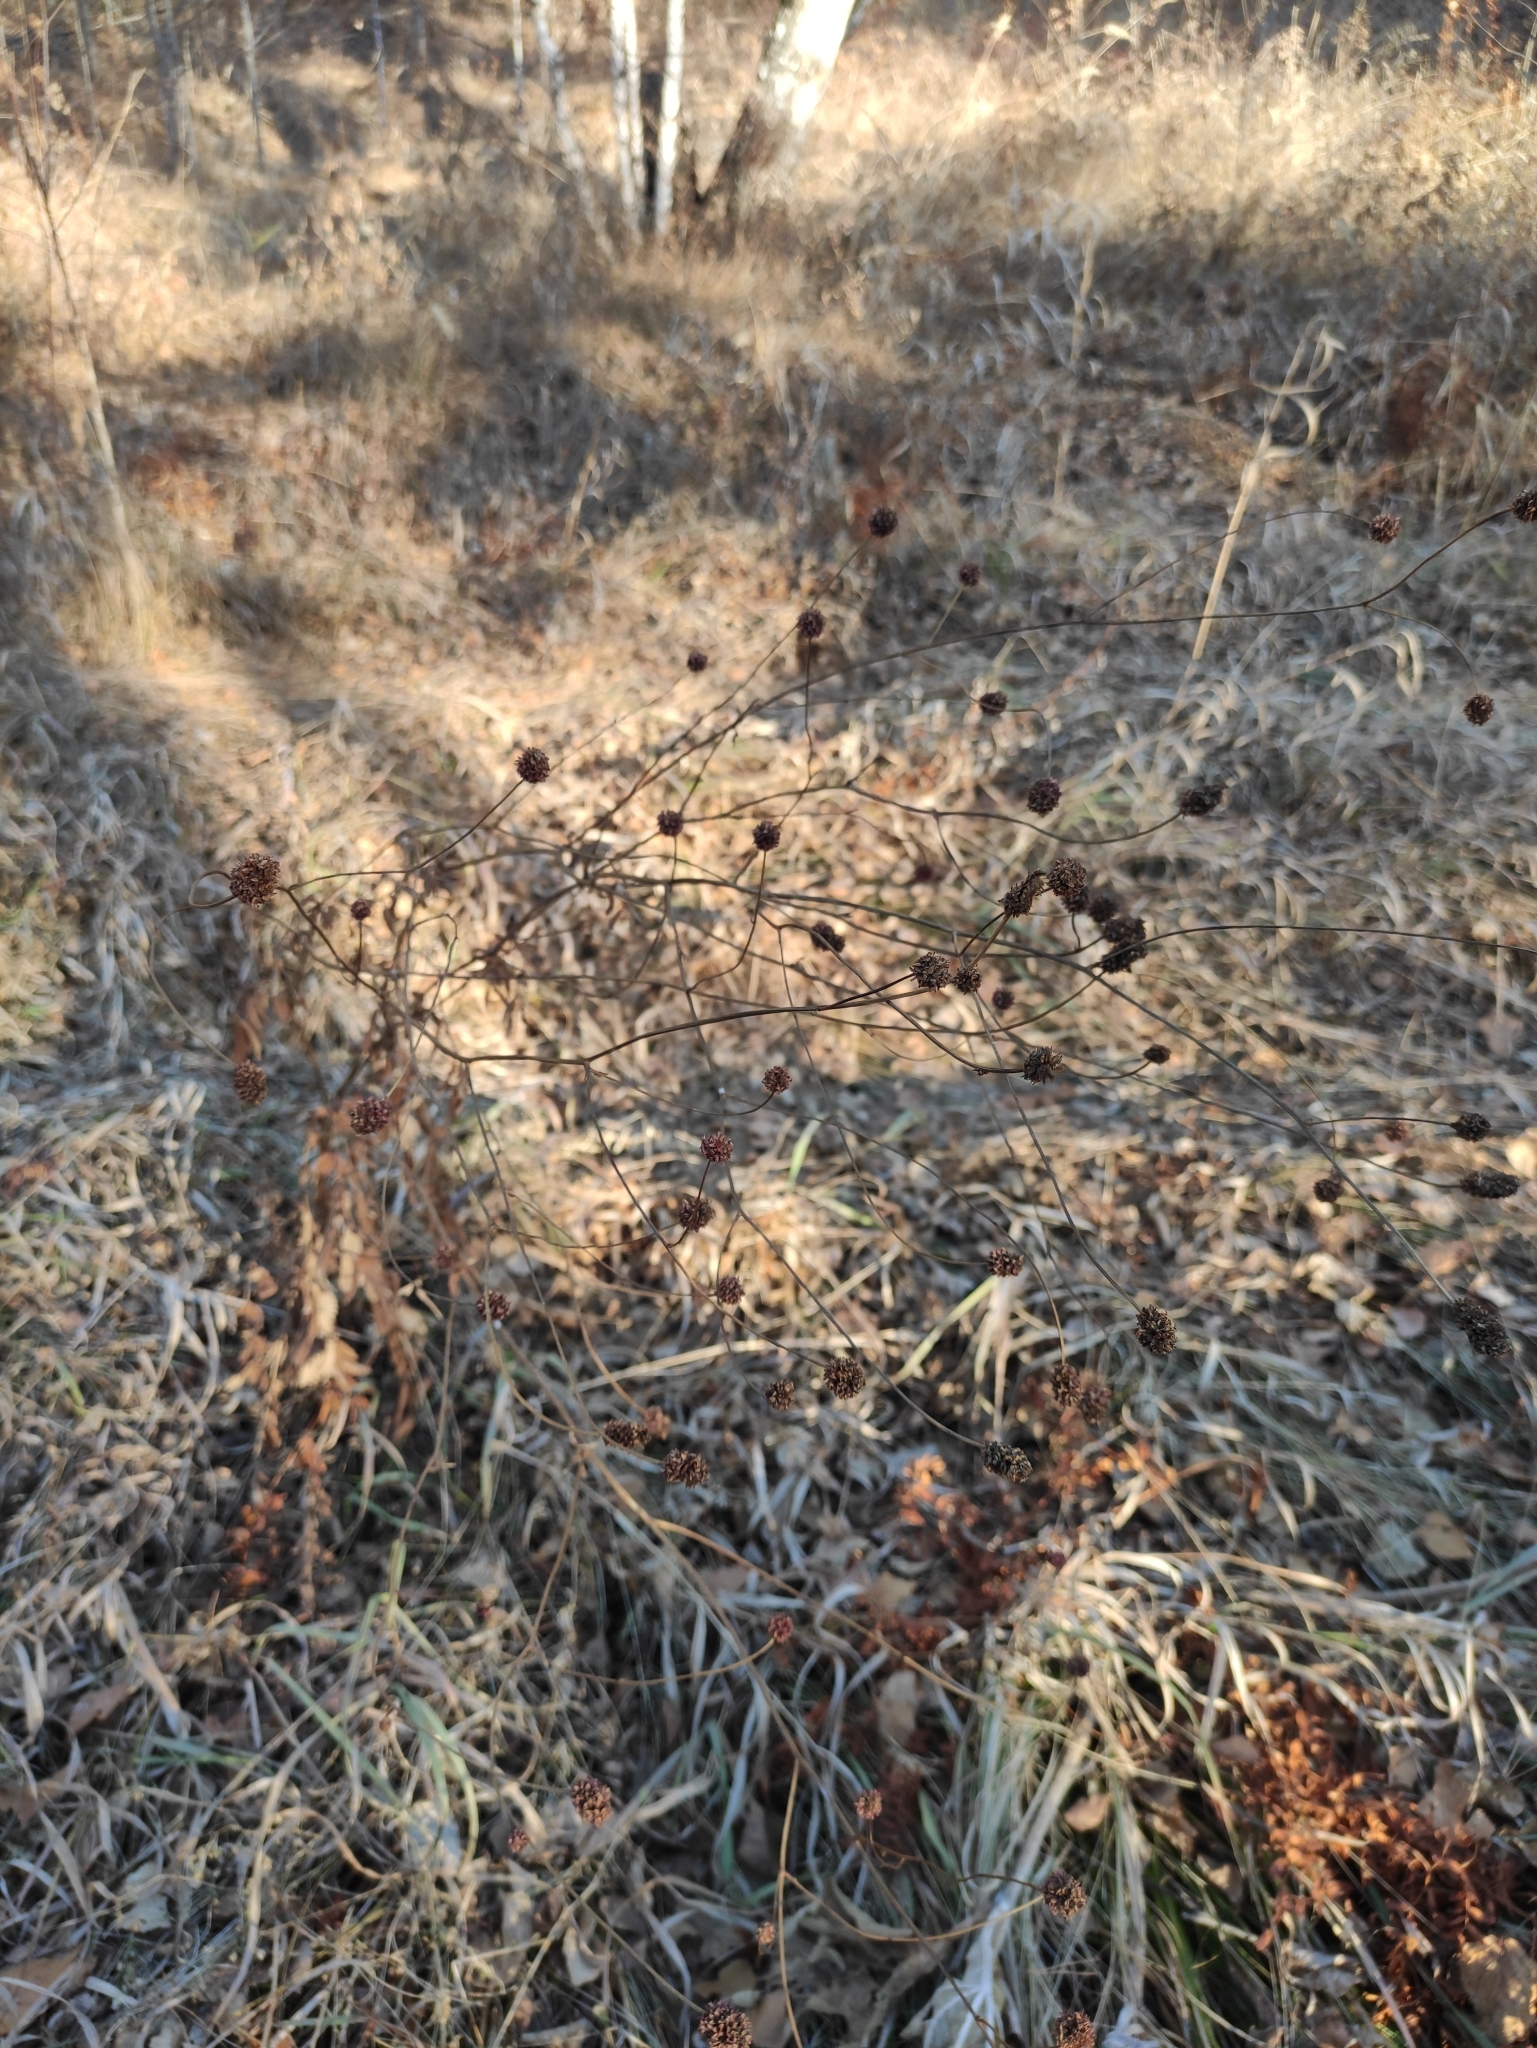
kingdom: Plantae
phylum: Tracheophyta
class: Magnoliopsida
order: Rosales
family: Rosaceae
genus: Sanguisorba
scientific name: Sanguisorba officinalis
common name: Great burnet
